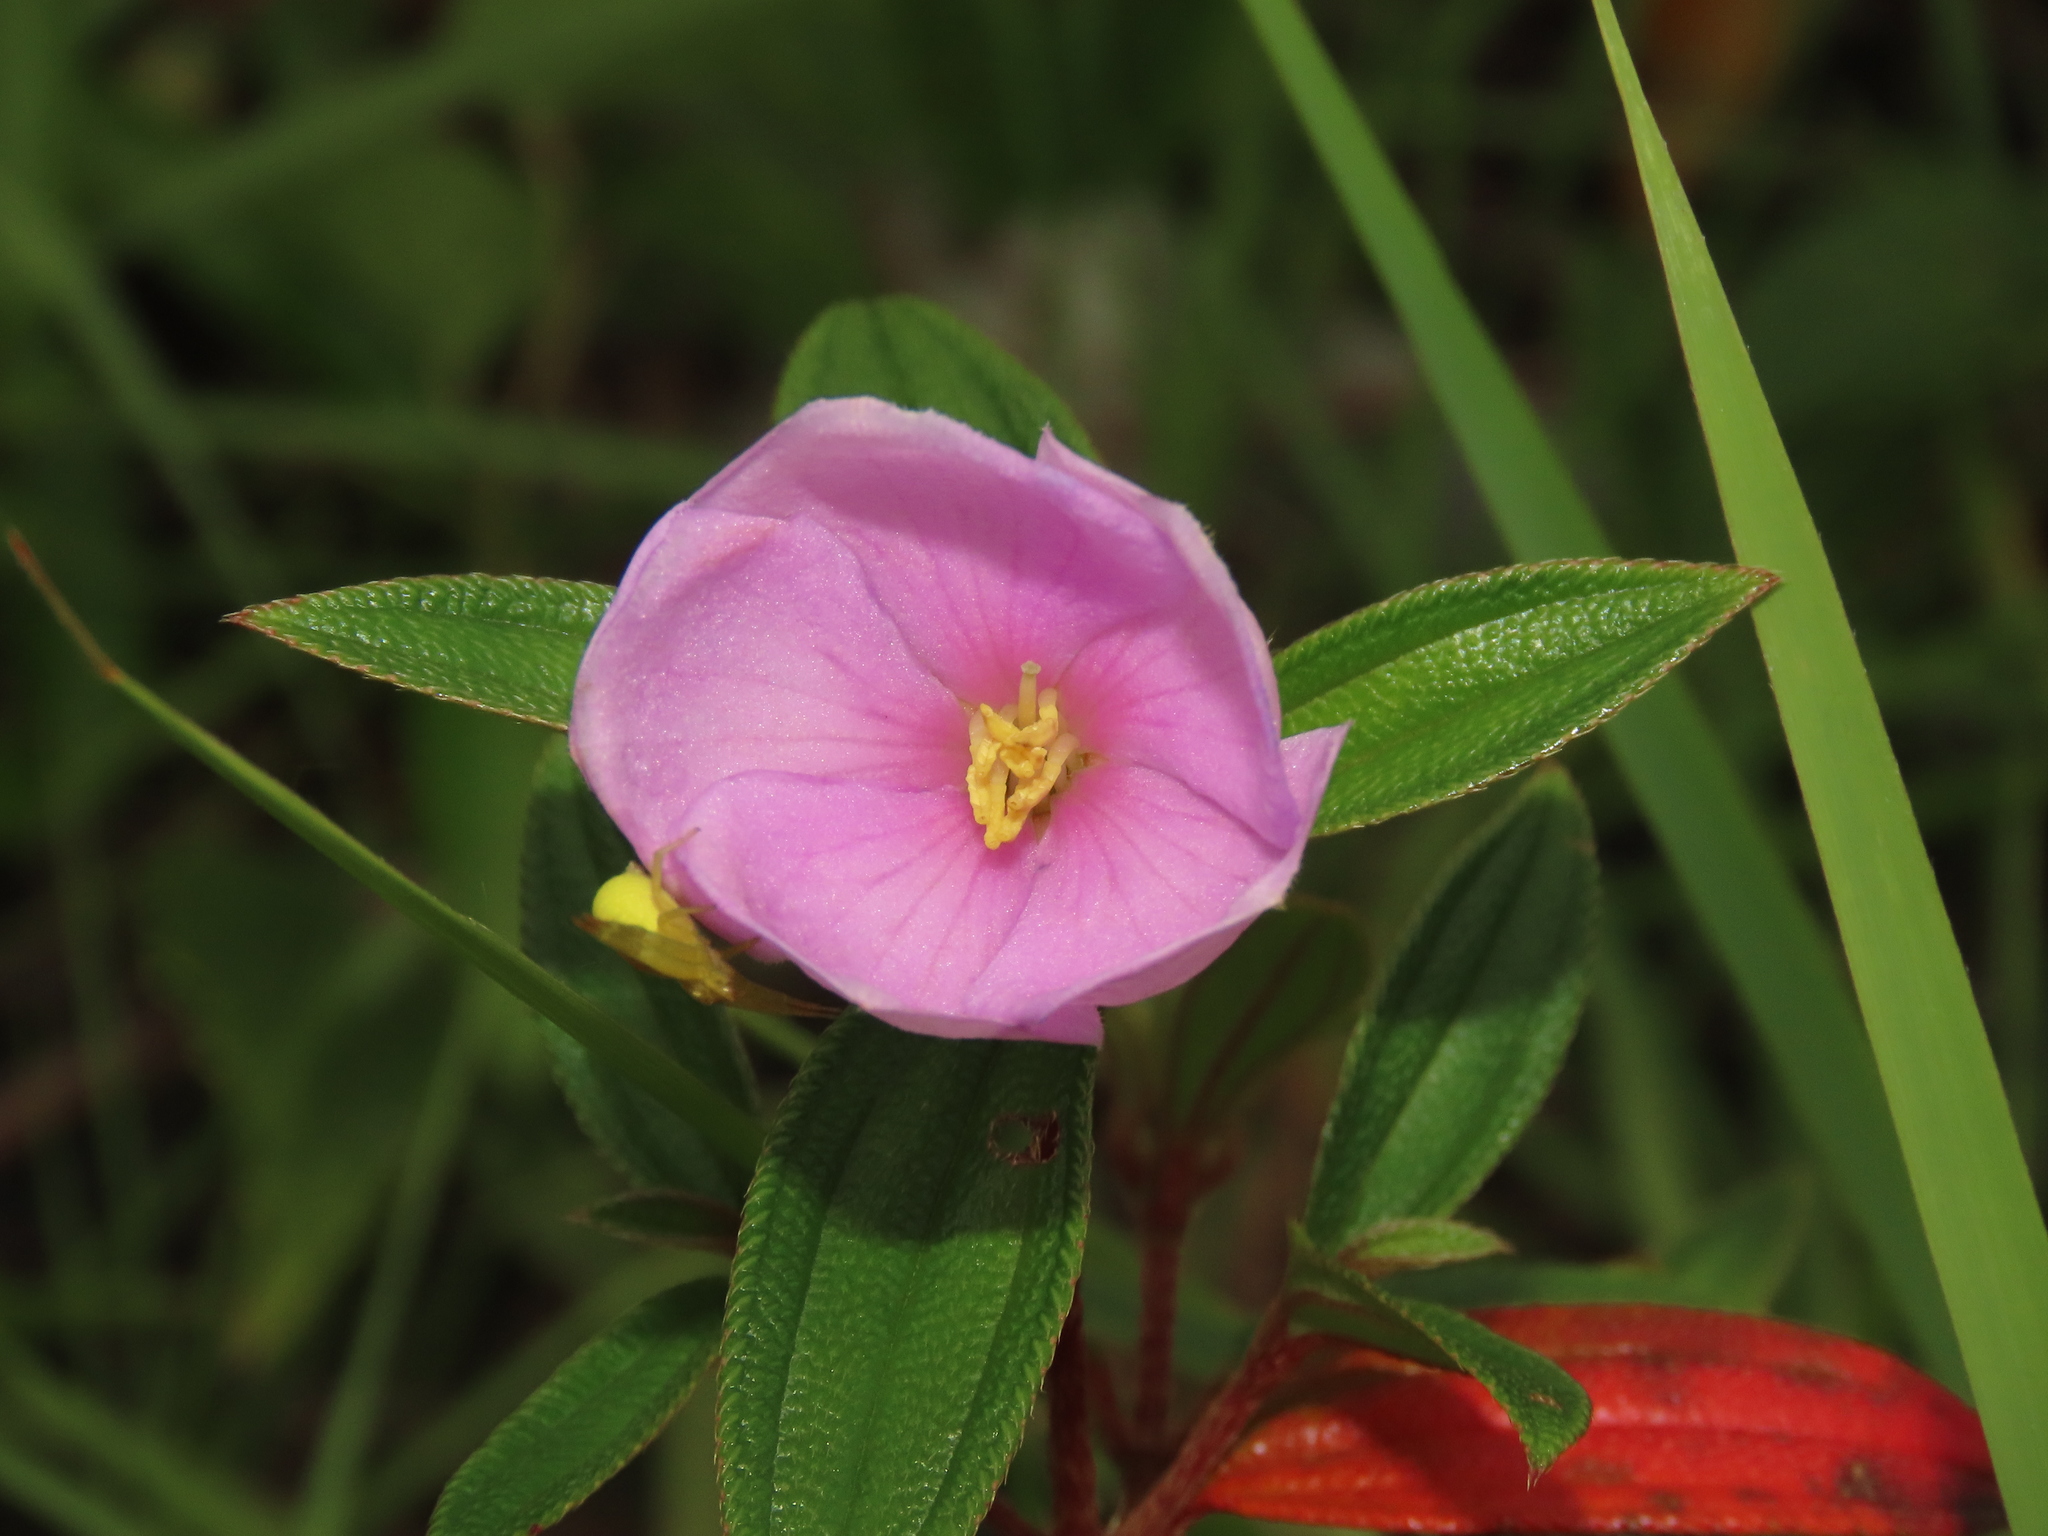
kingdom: Plantae
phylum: Tracheophyta
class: Magnoliopsida
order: Myrtales
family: Melastomataceae
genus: Melastoma
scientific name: Melastoma scaberrima
